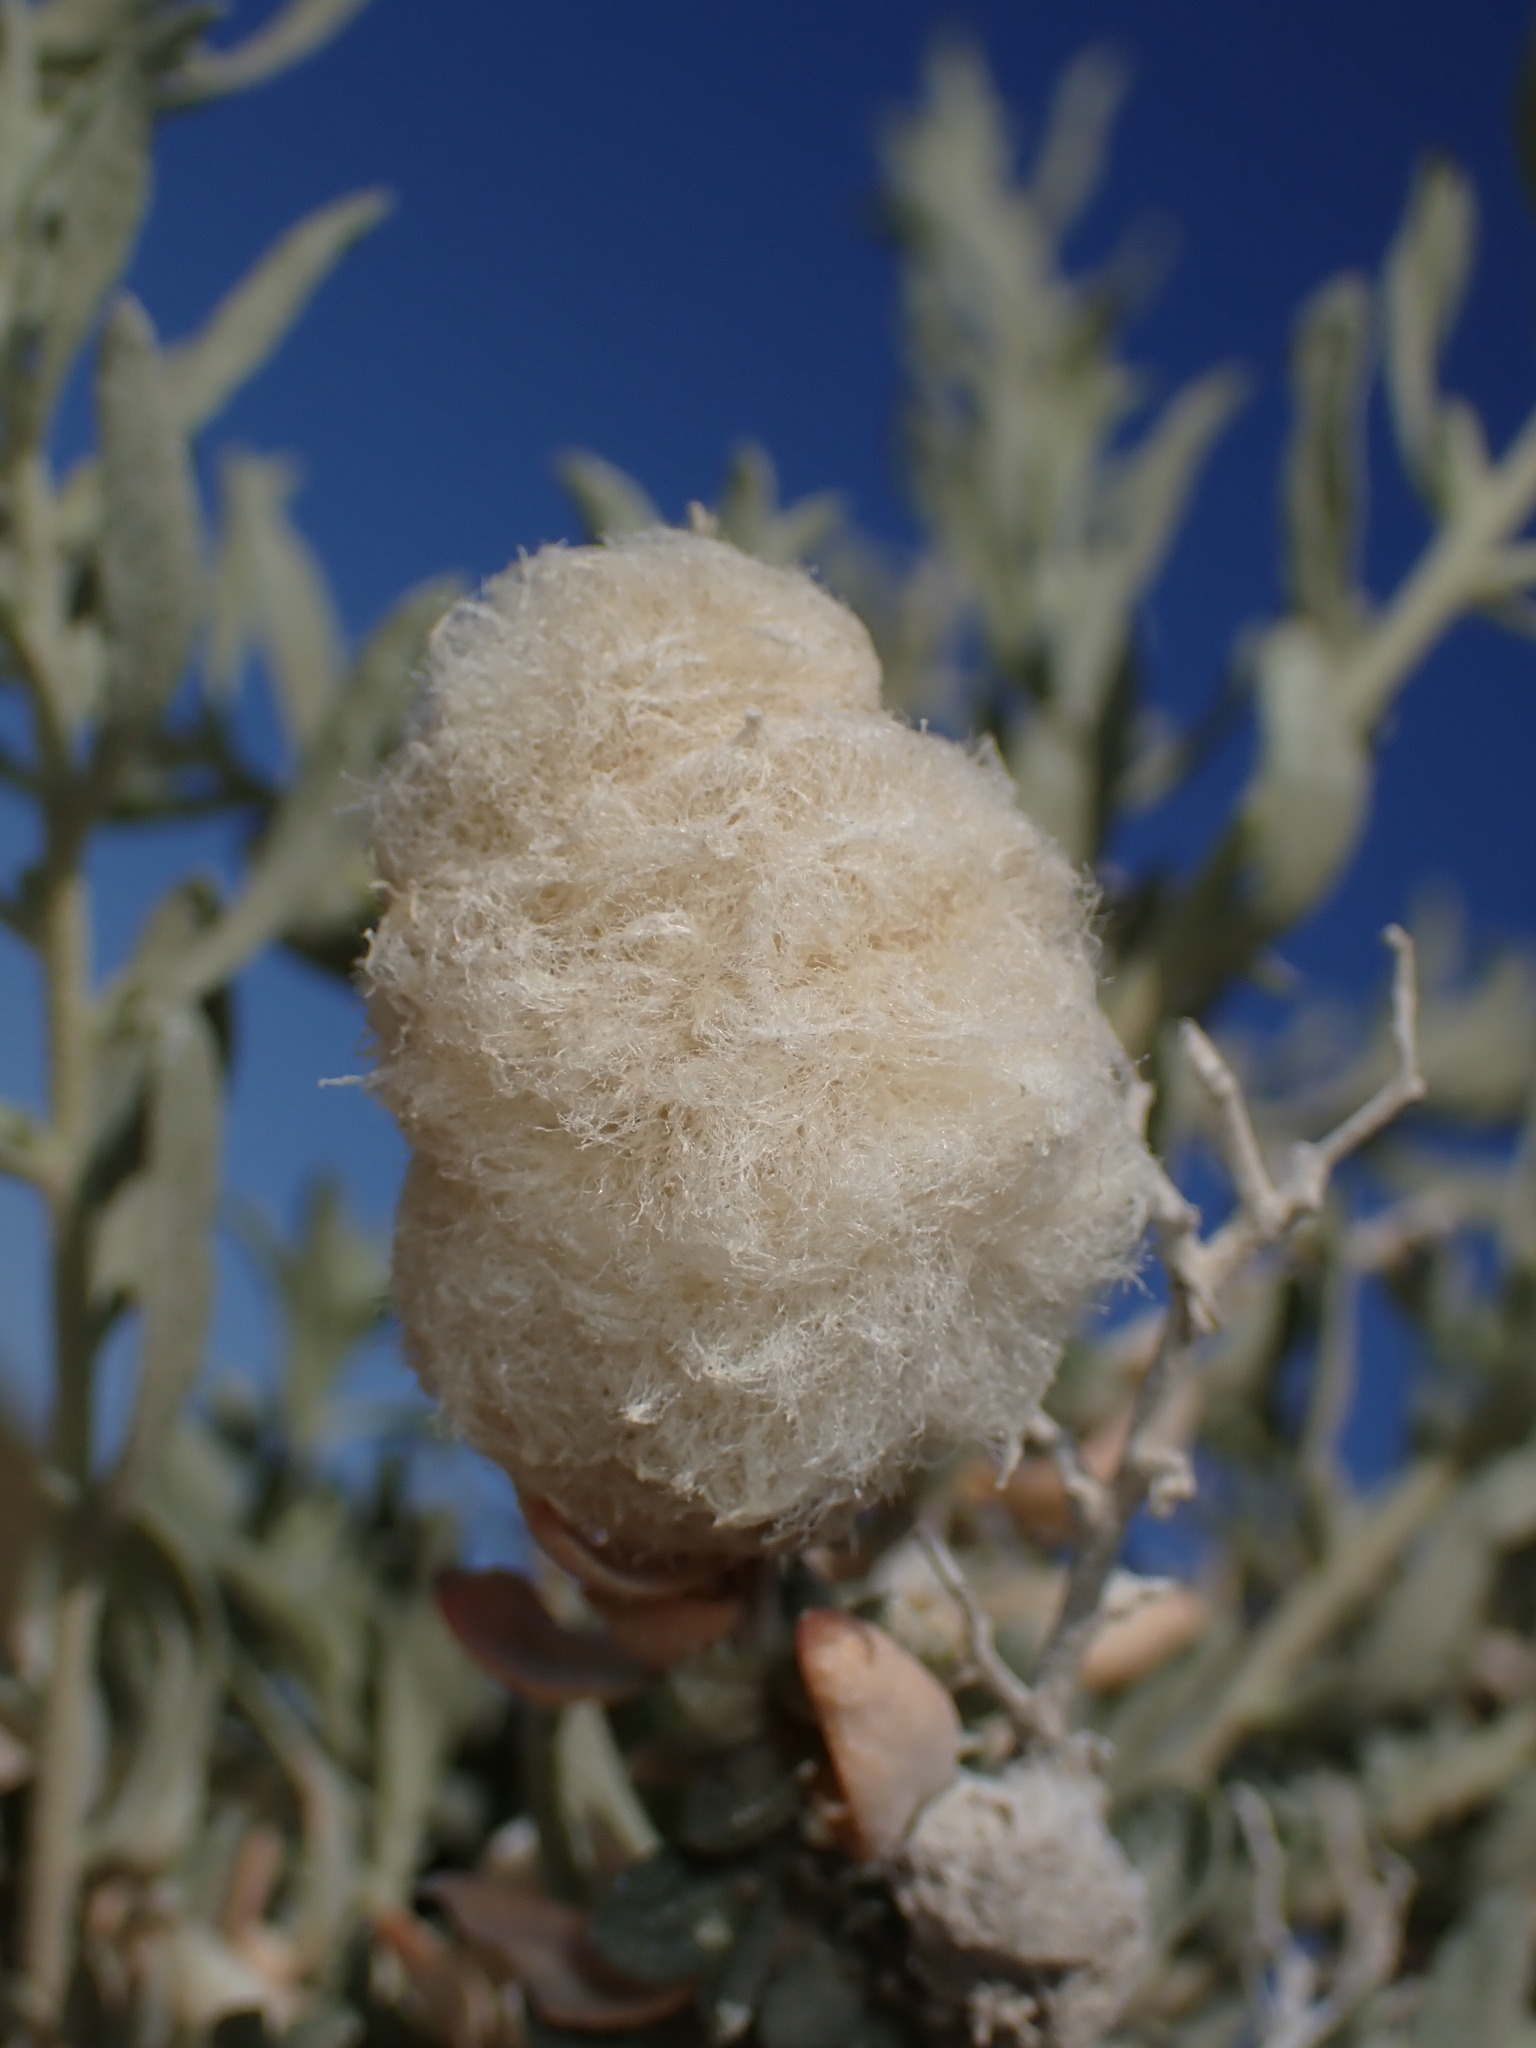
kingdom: Animalia
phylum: Arthropoda
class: Insecta
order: Diptera
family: Cecidomyiidae
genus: Asphondylia
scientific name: Asphondylia floccosa
